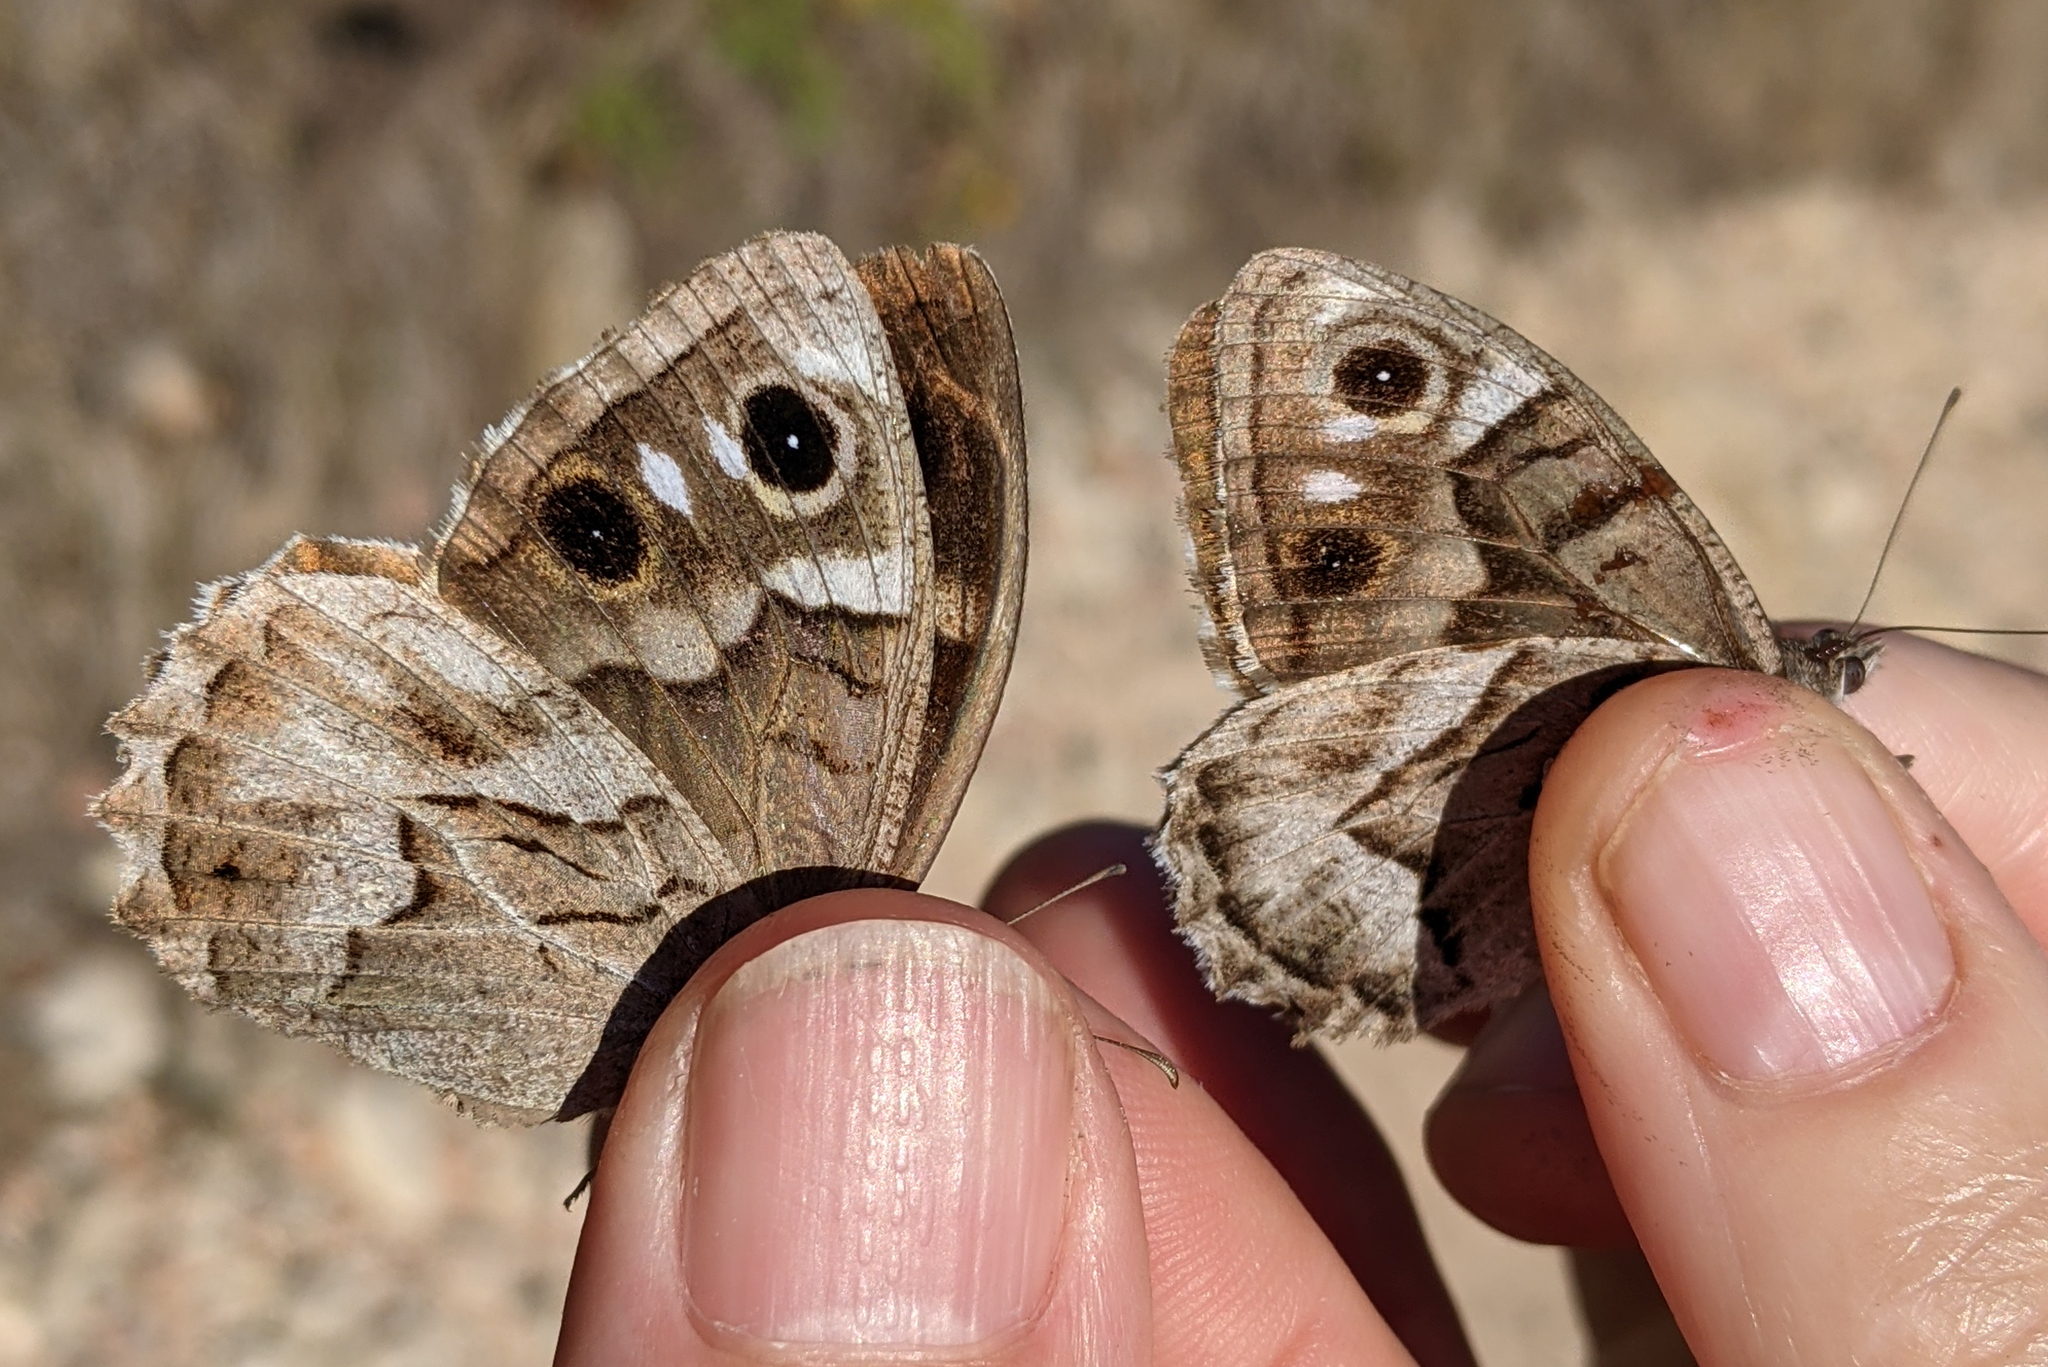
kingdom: Animalia
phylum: Arthropoda
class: Insecta
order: Lepidoptera
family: Nymphalidae
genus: Hipparchia
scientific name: Hipparchia fidia
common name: Striped grayling
